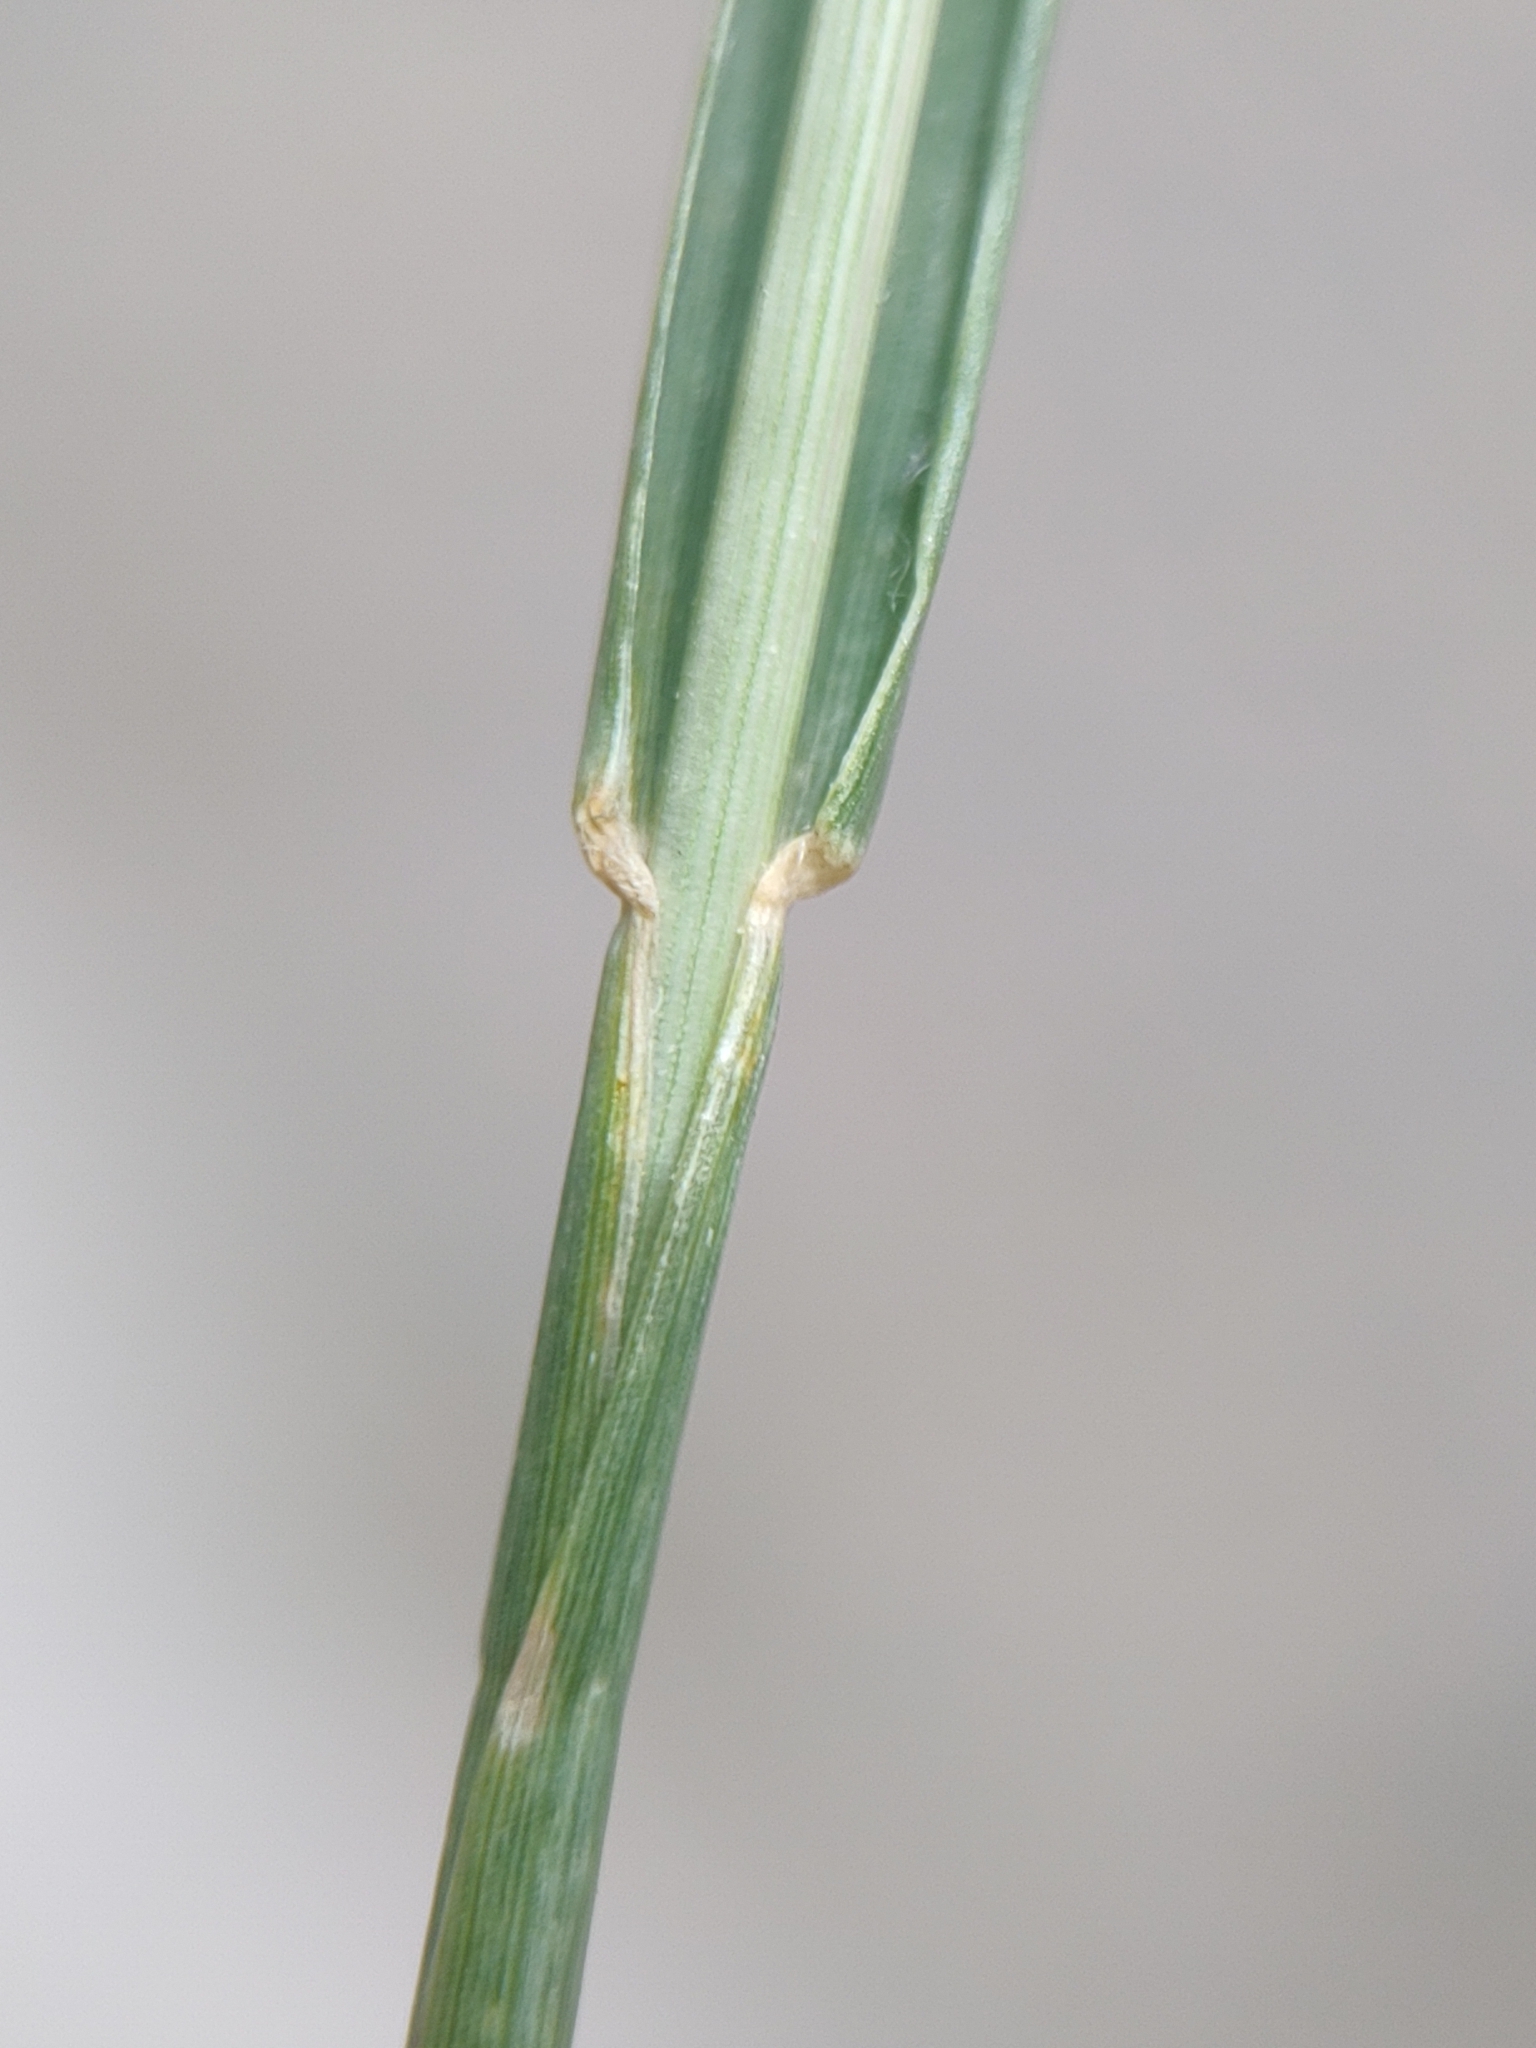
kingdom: Plantae
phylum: Tracheophyta
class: Liliopsida
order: Poales
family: Poaceae
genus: Sporobolus
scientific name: Sporobolus indicus
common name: Smut grass
